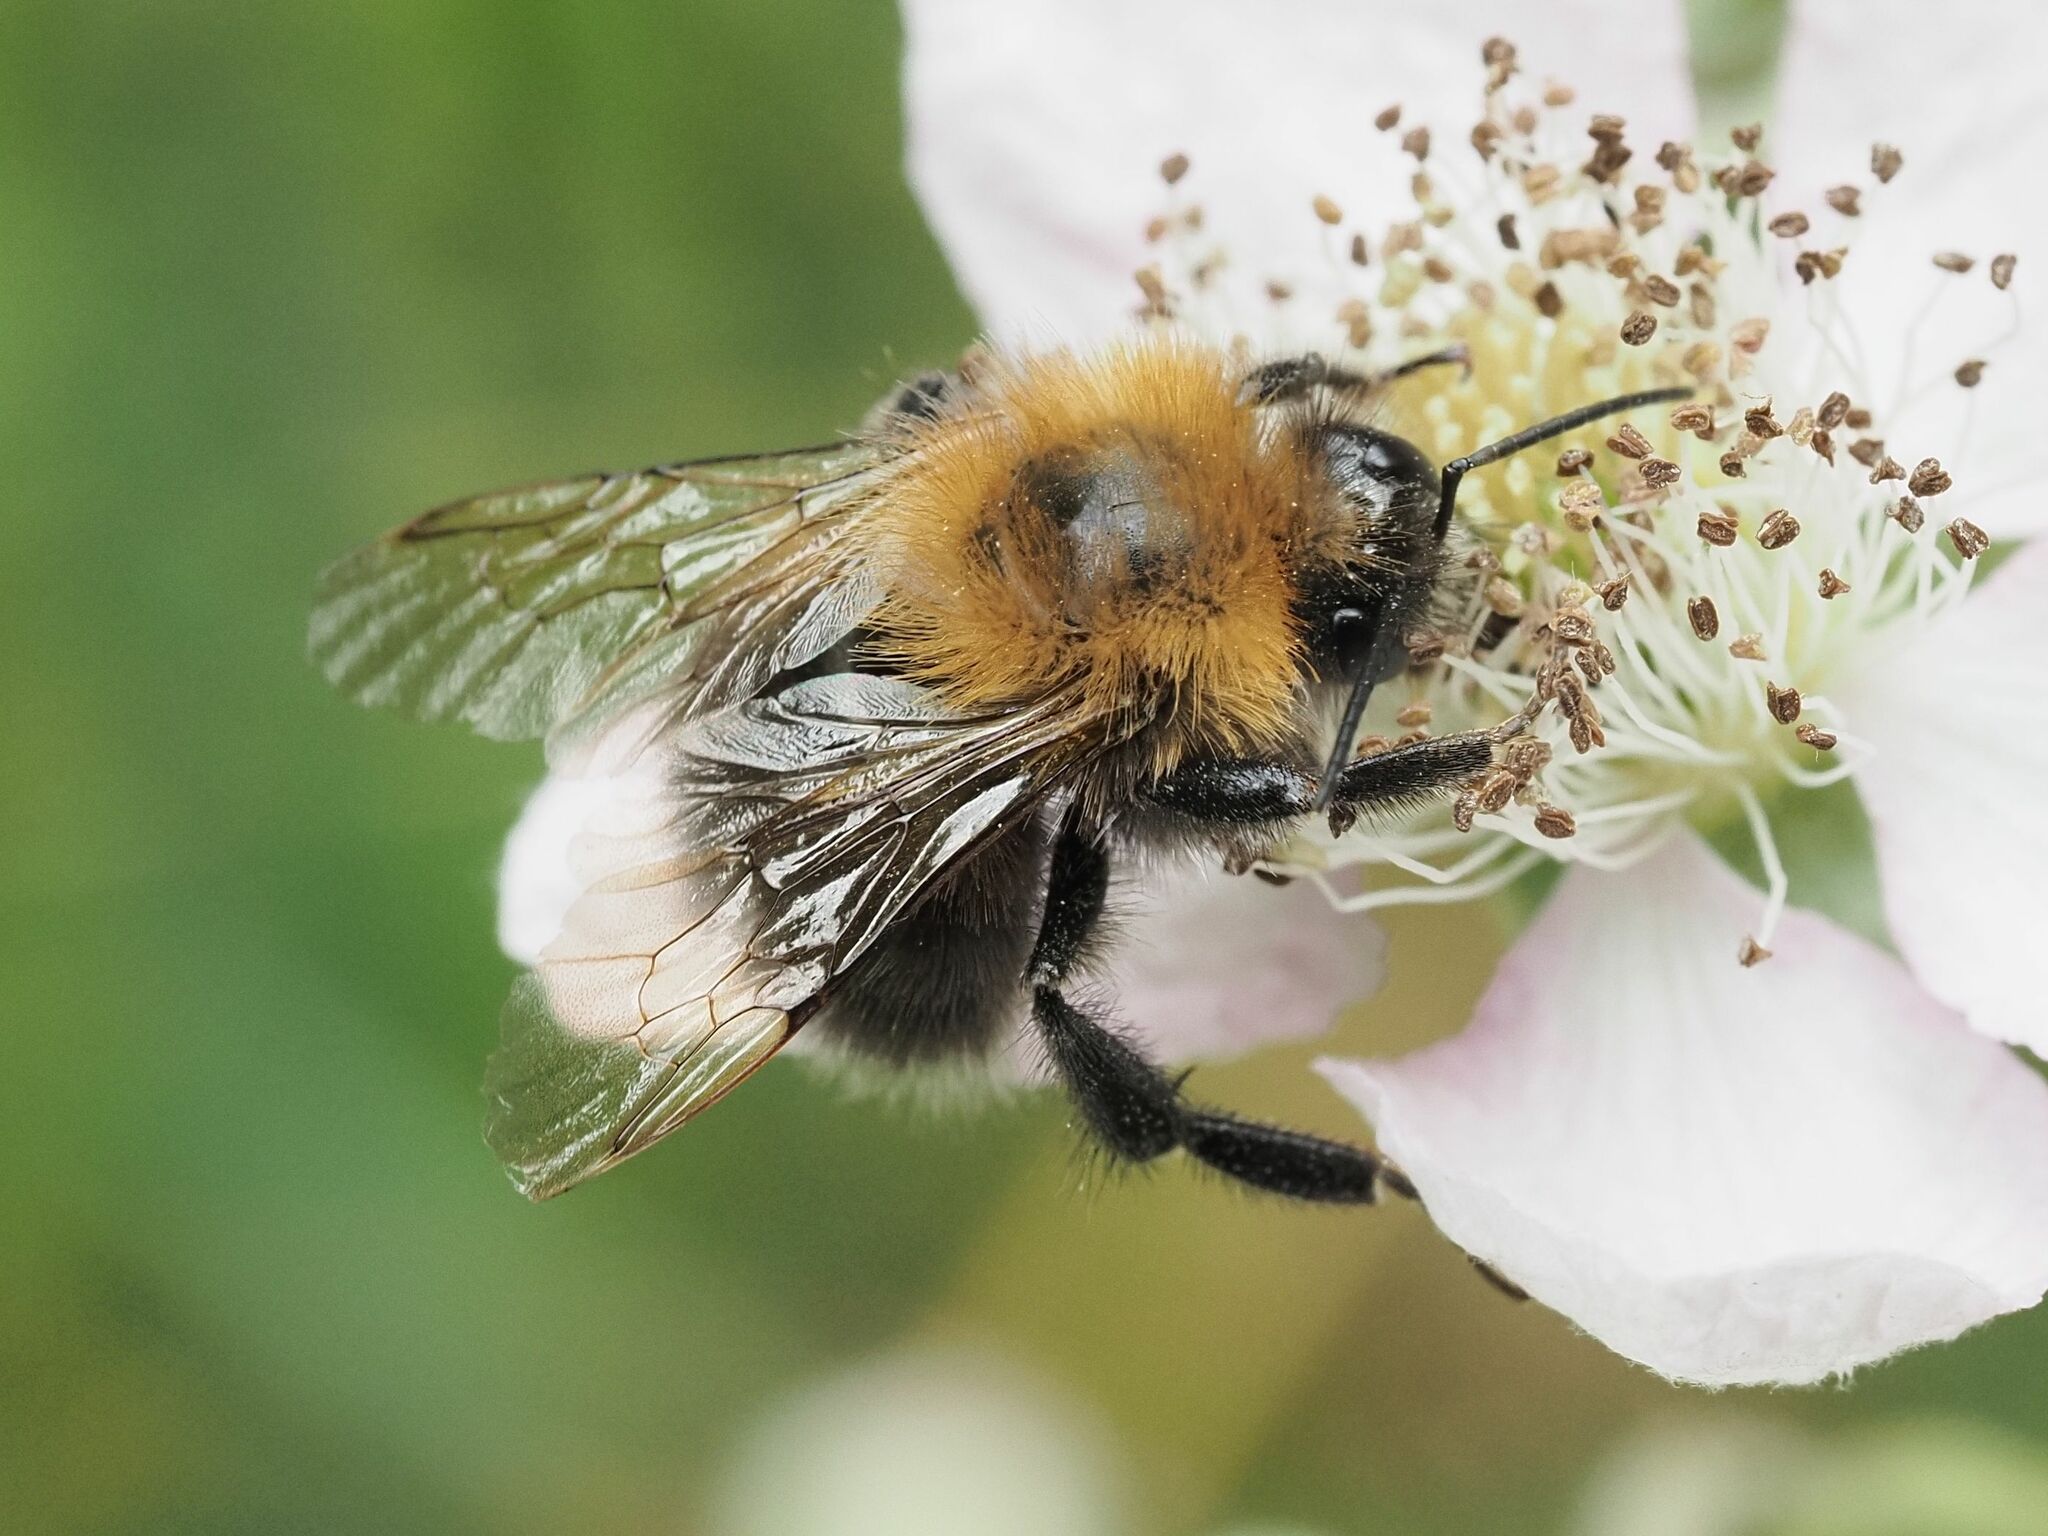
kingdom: Animalia
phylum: Arthropoda
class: Insecta
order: Hymenoptera
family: Apidae
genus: Bombus
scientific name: Bombus hypnorum
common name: New garden bumblebee
